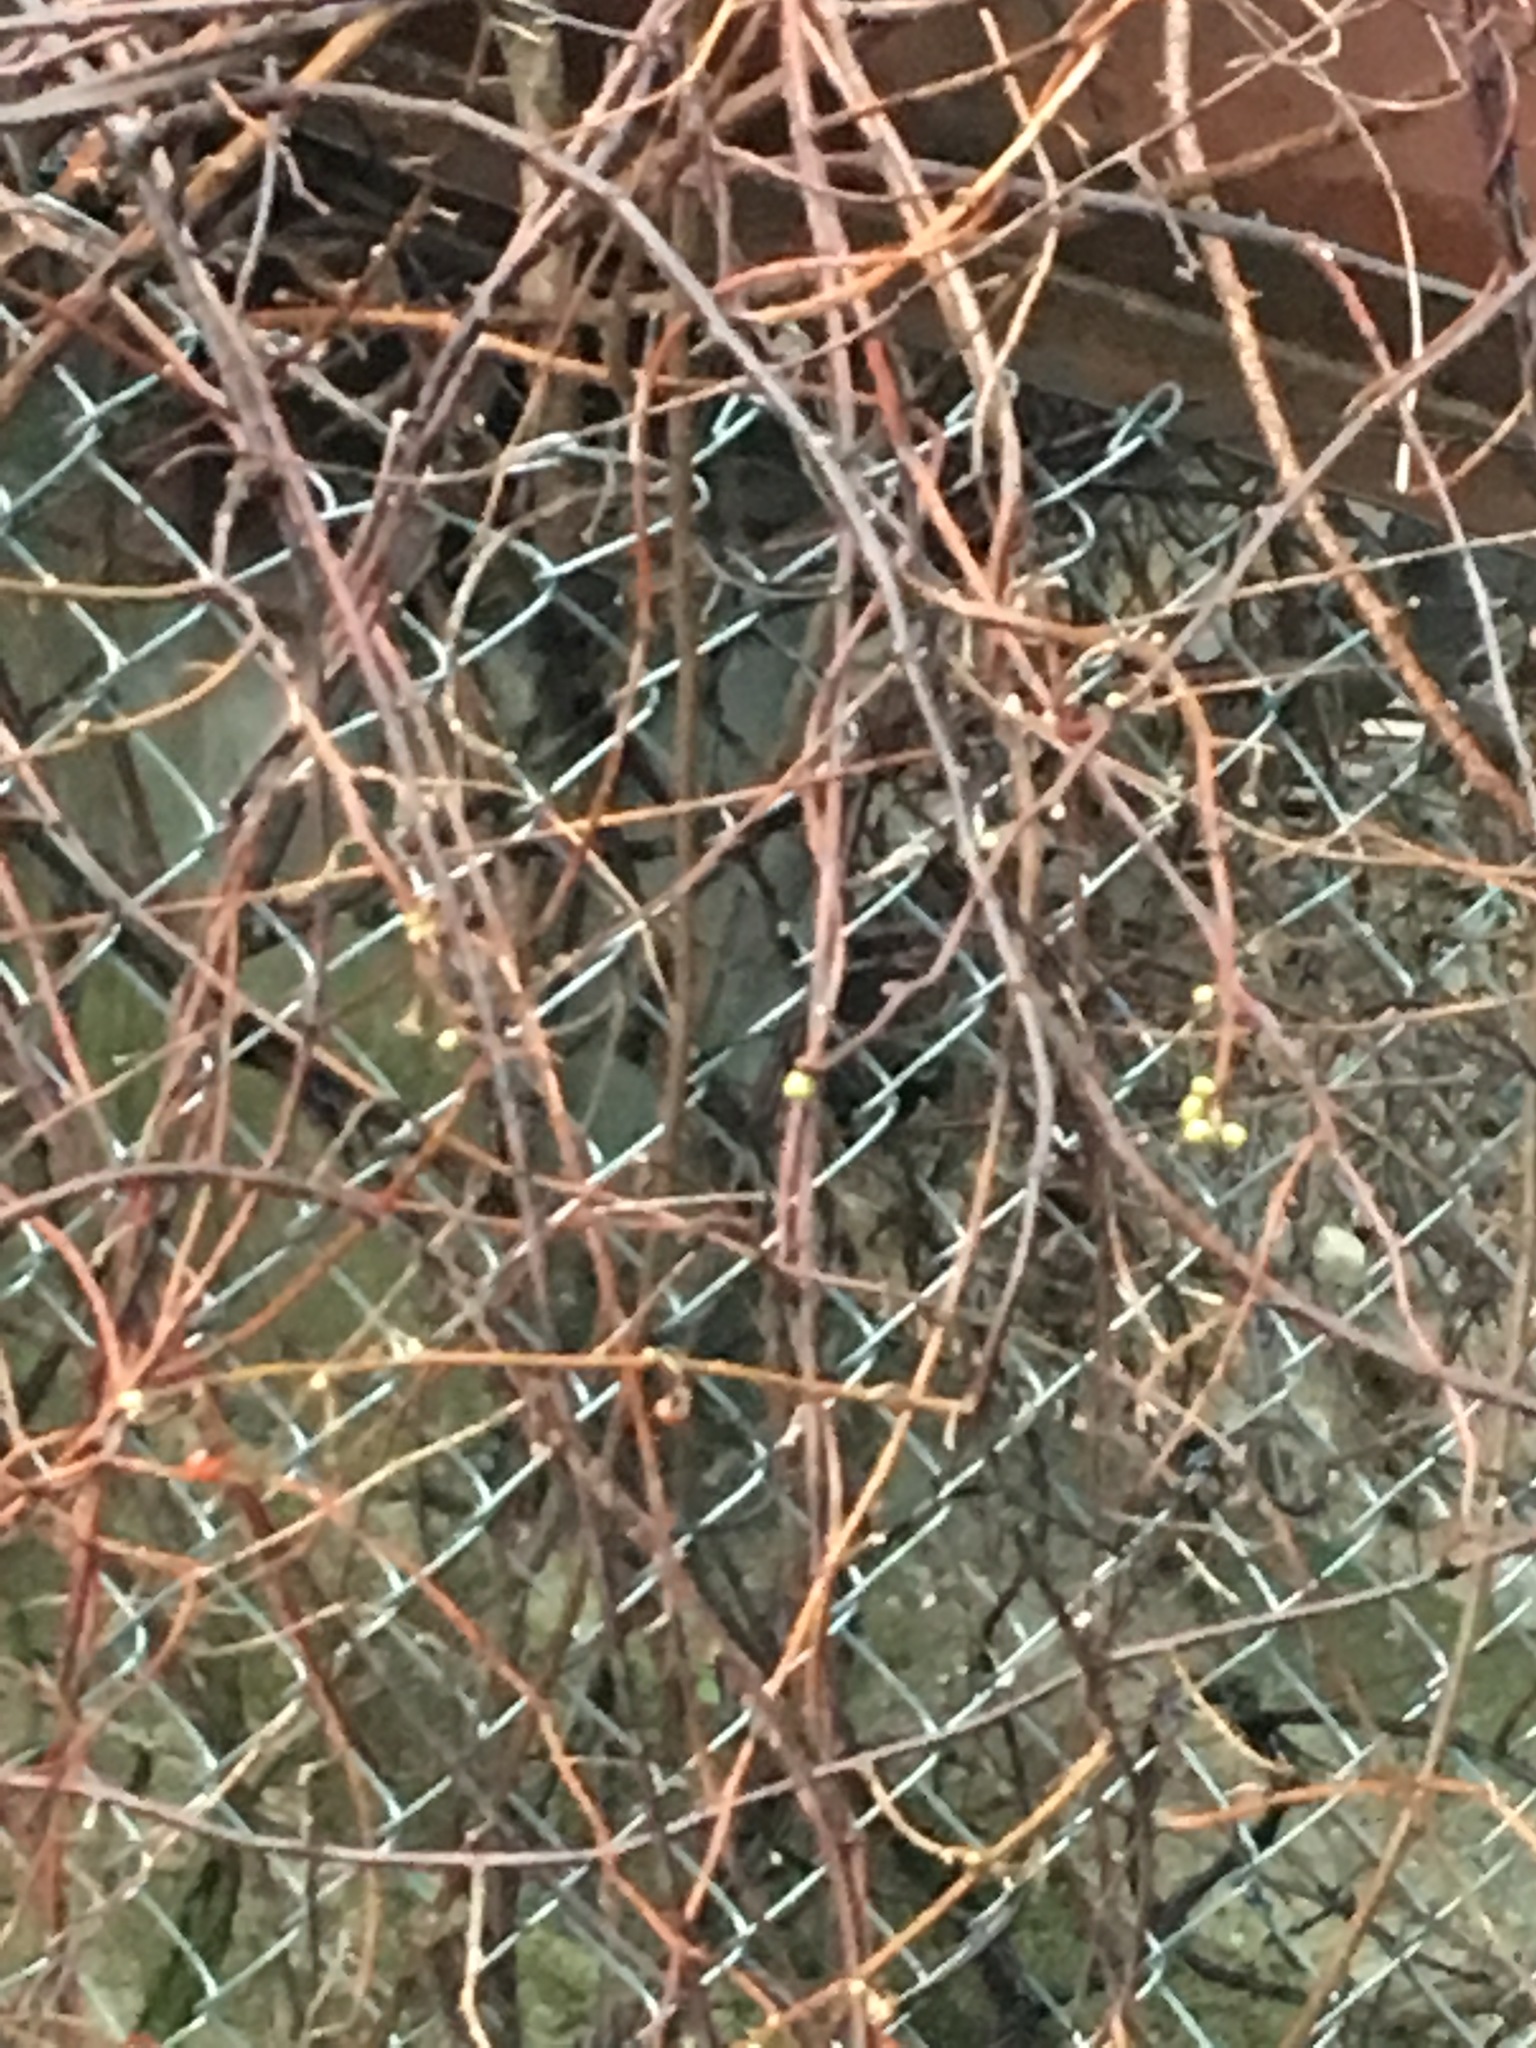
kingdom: Animalia
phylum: Chordata
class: Aves
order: Passeriformes
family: Passeridae
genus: Passer
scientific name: Passer domesticus
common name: House sparrow
